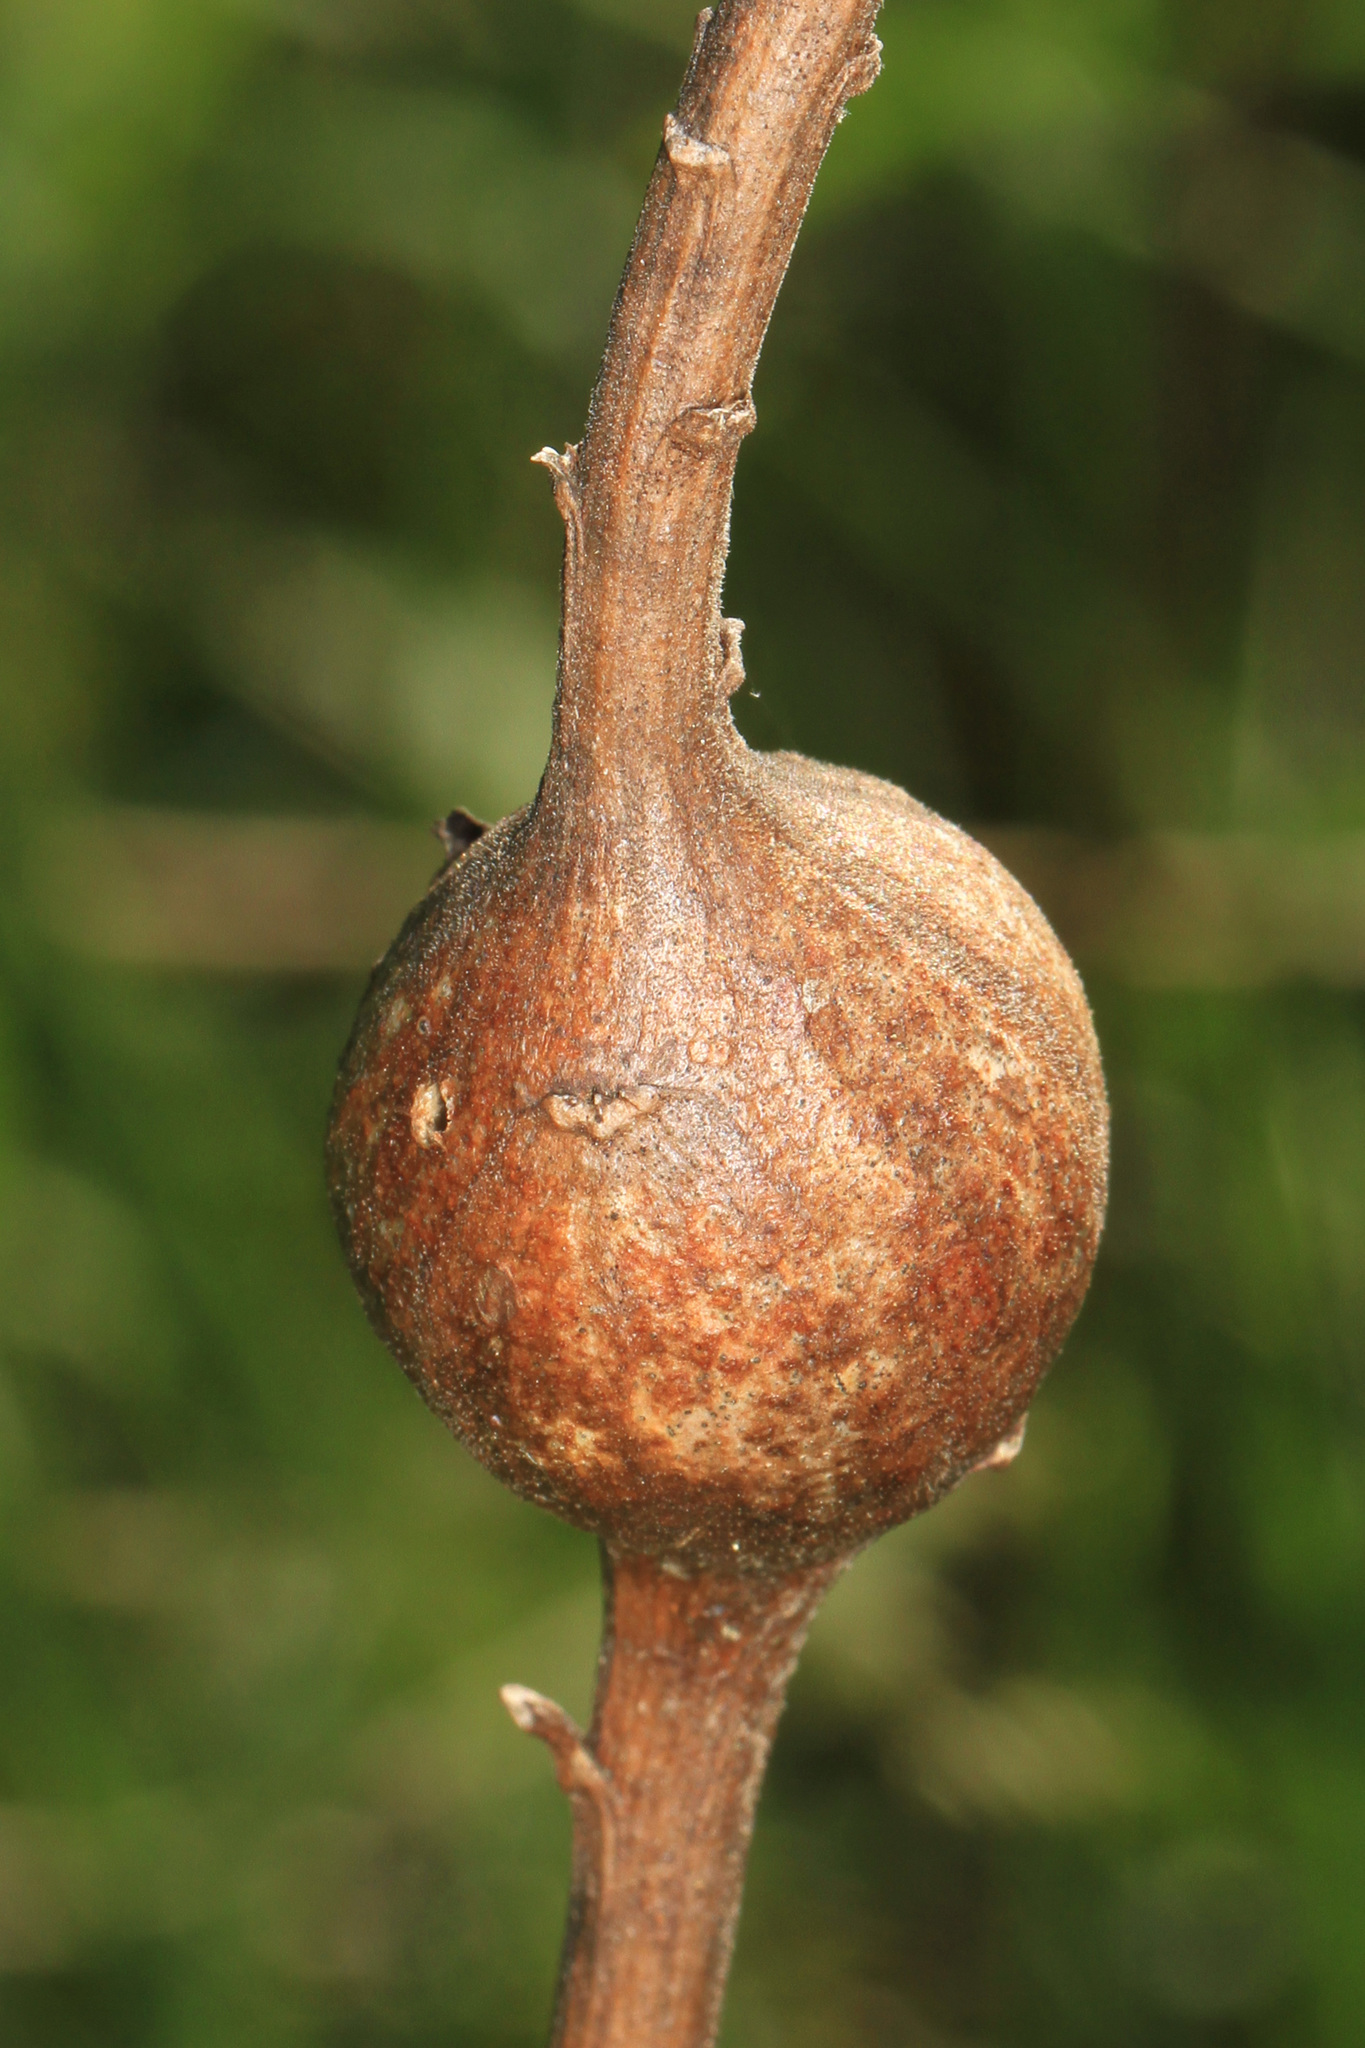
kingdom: Animalia
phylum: Arthropoda
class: Insecta
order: Diptera
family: Tephritidae
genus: Eurosta
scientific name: Eurosta solidaginis
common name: Goldenrod gall fly
